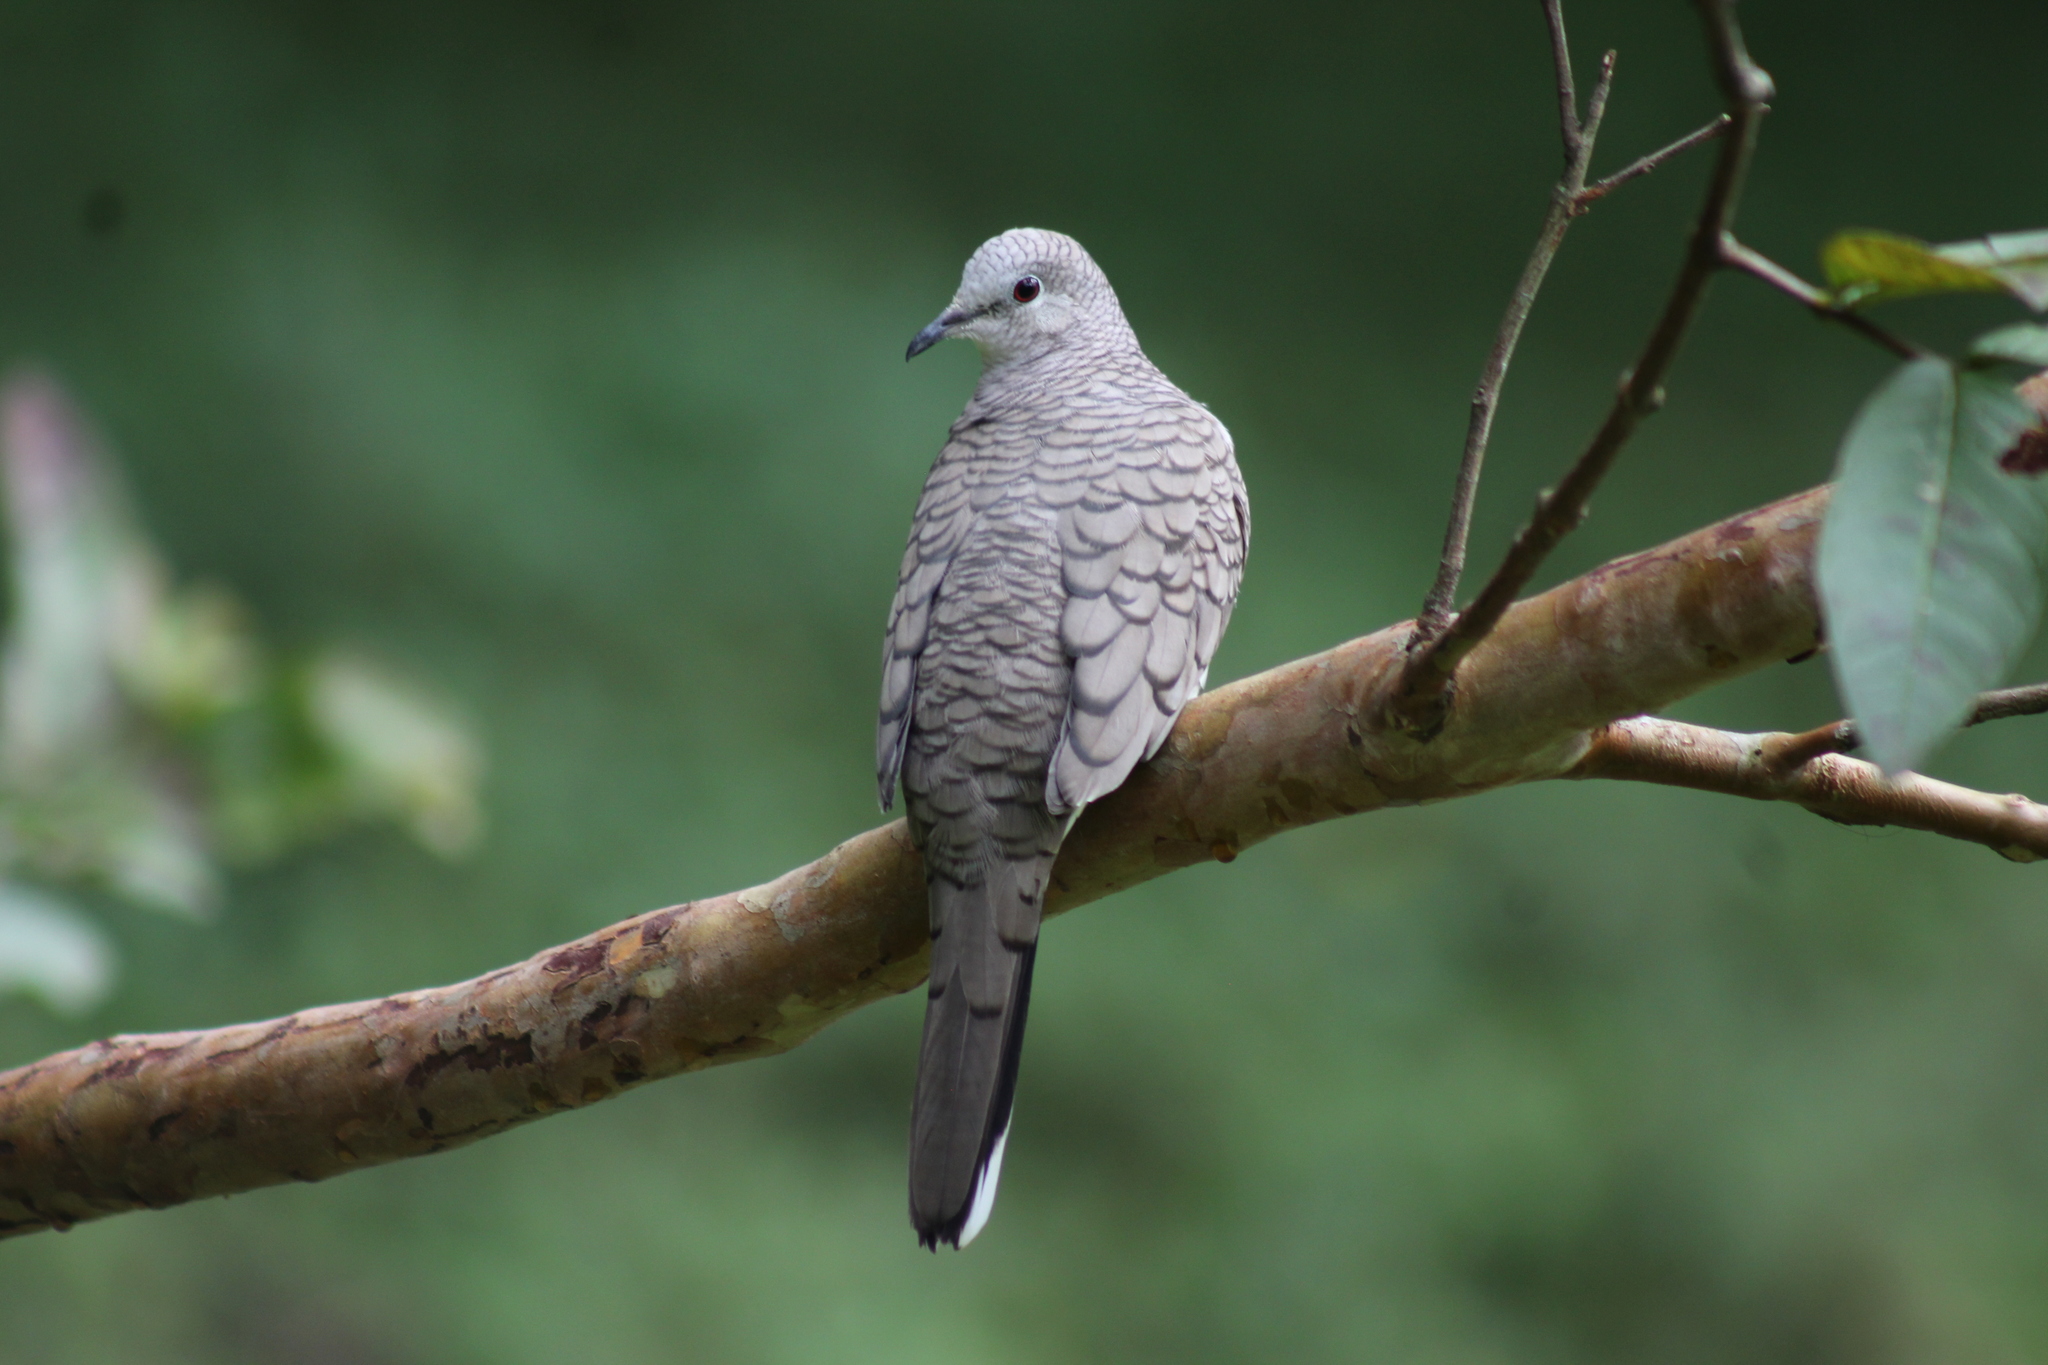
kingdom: Animalia
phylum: Chordata
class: Aves
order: Columbiformes
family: Columbidae
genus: Columbina
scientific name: Columbina inca
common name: Inca dove
